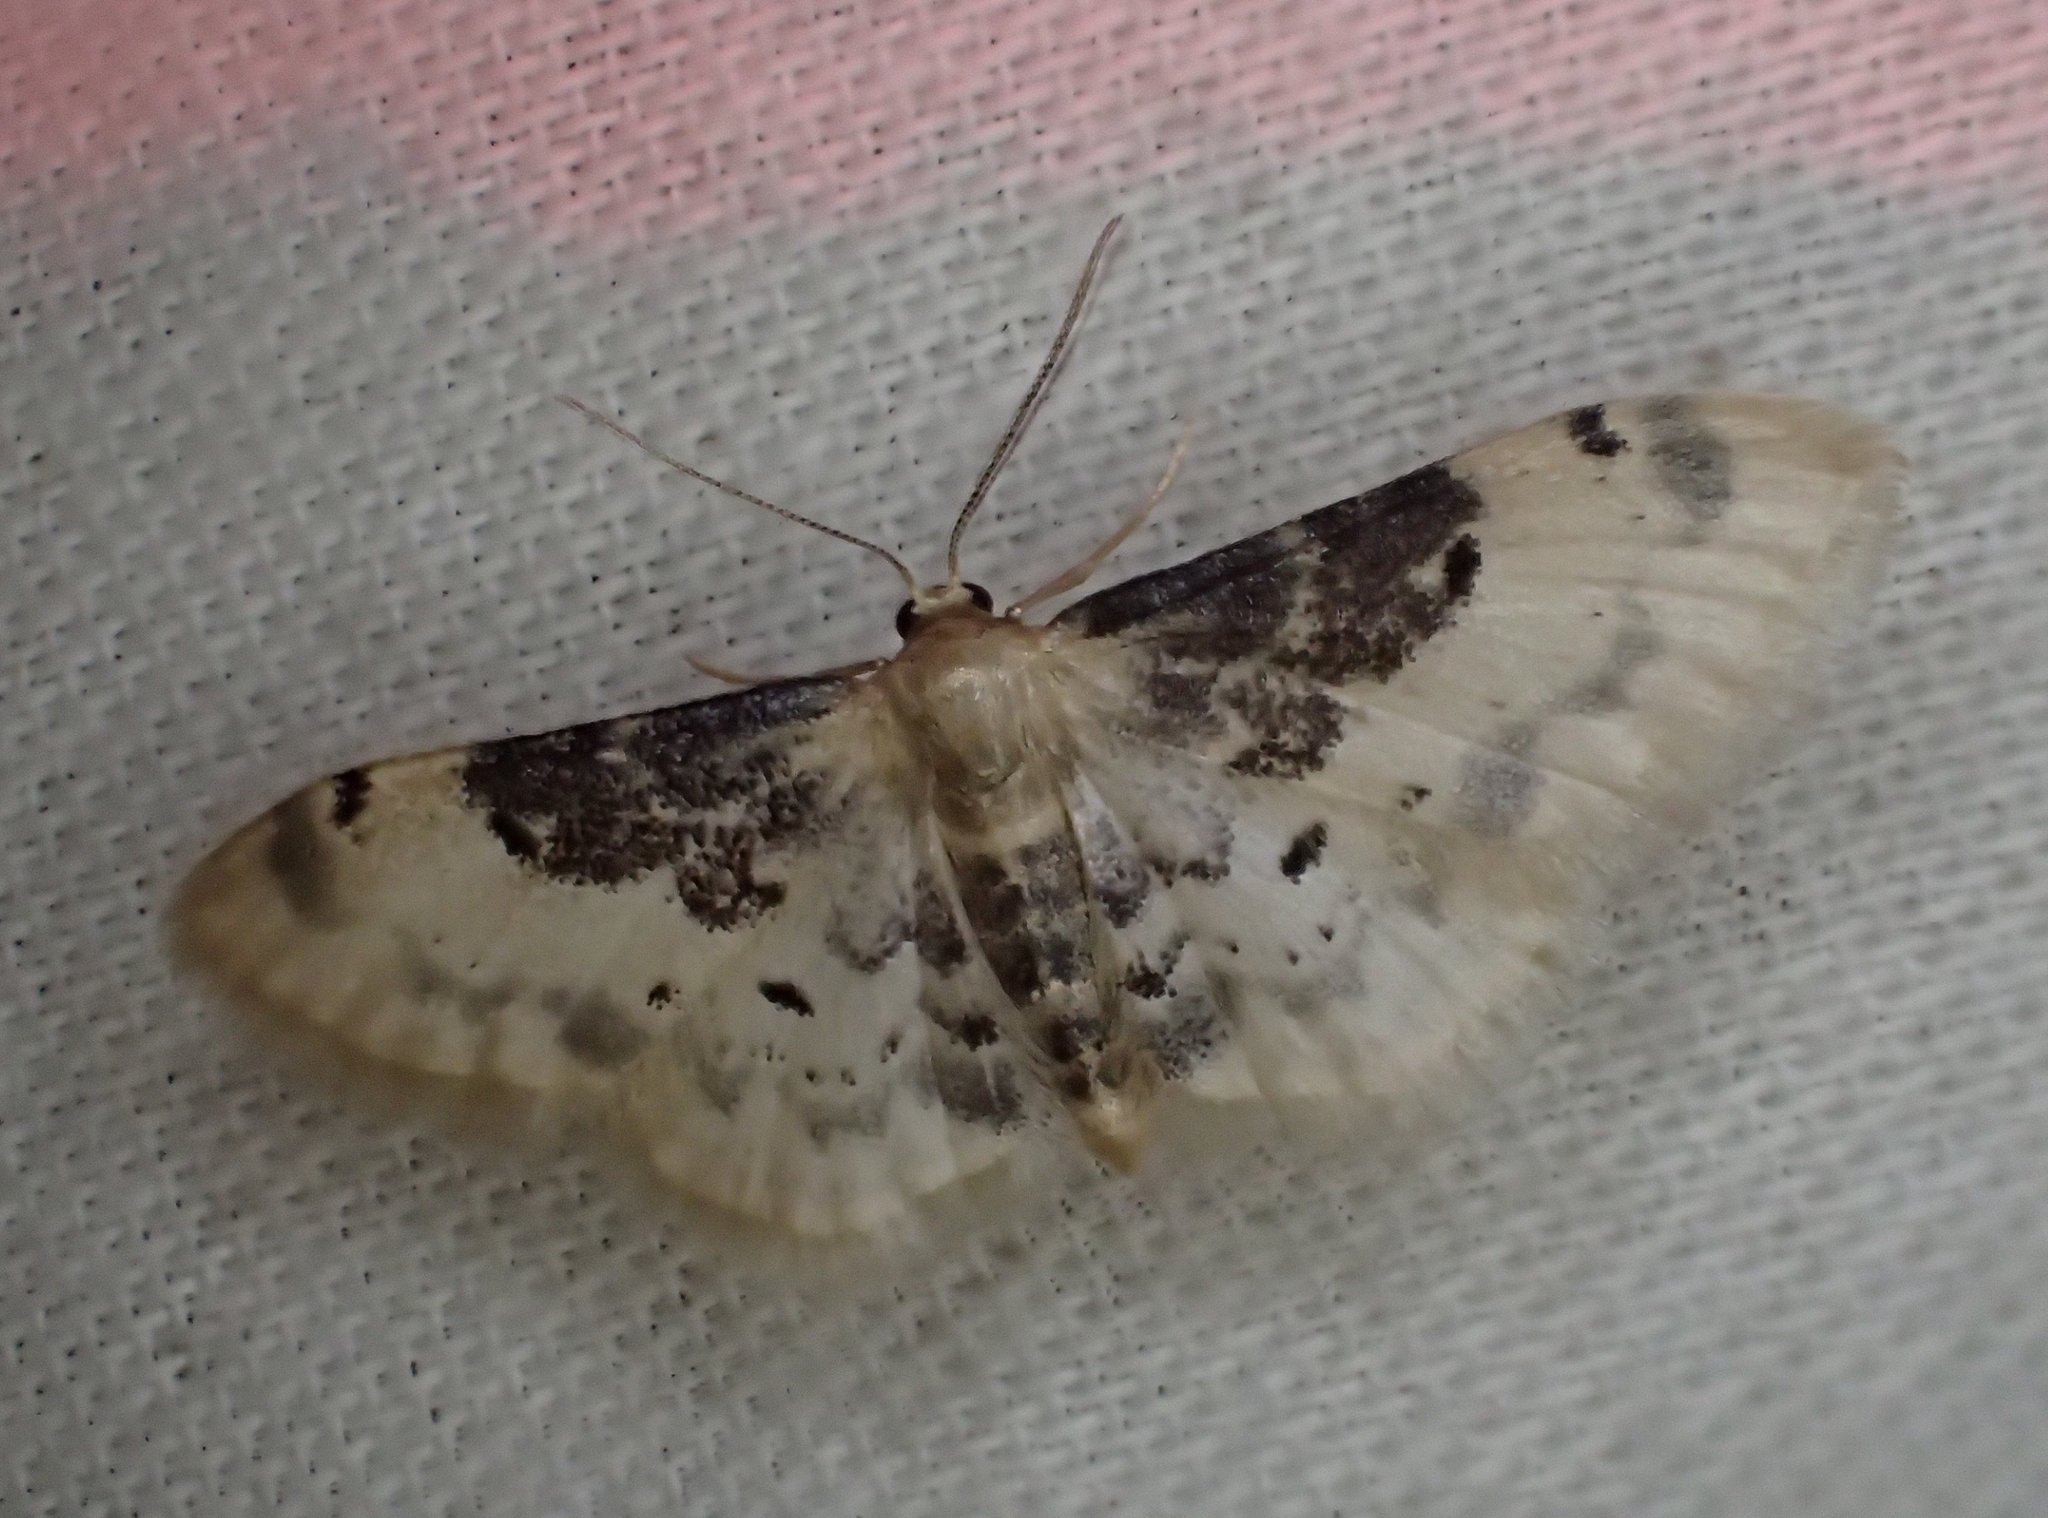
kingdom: Animalia
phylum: Arthropoda
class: Insecta
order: Lepidoptera
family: Geometridae
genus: Idaea
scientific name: Idaea filicata
